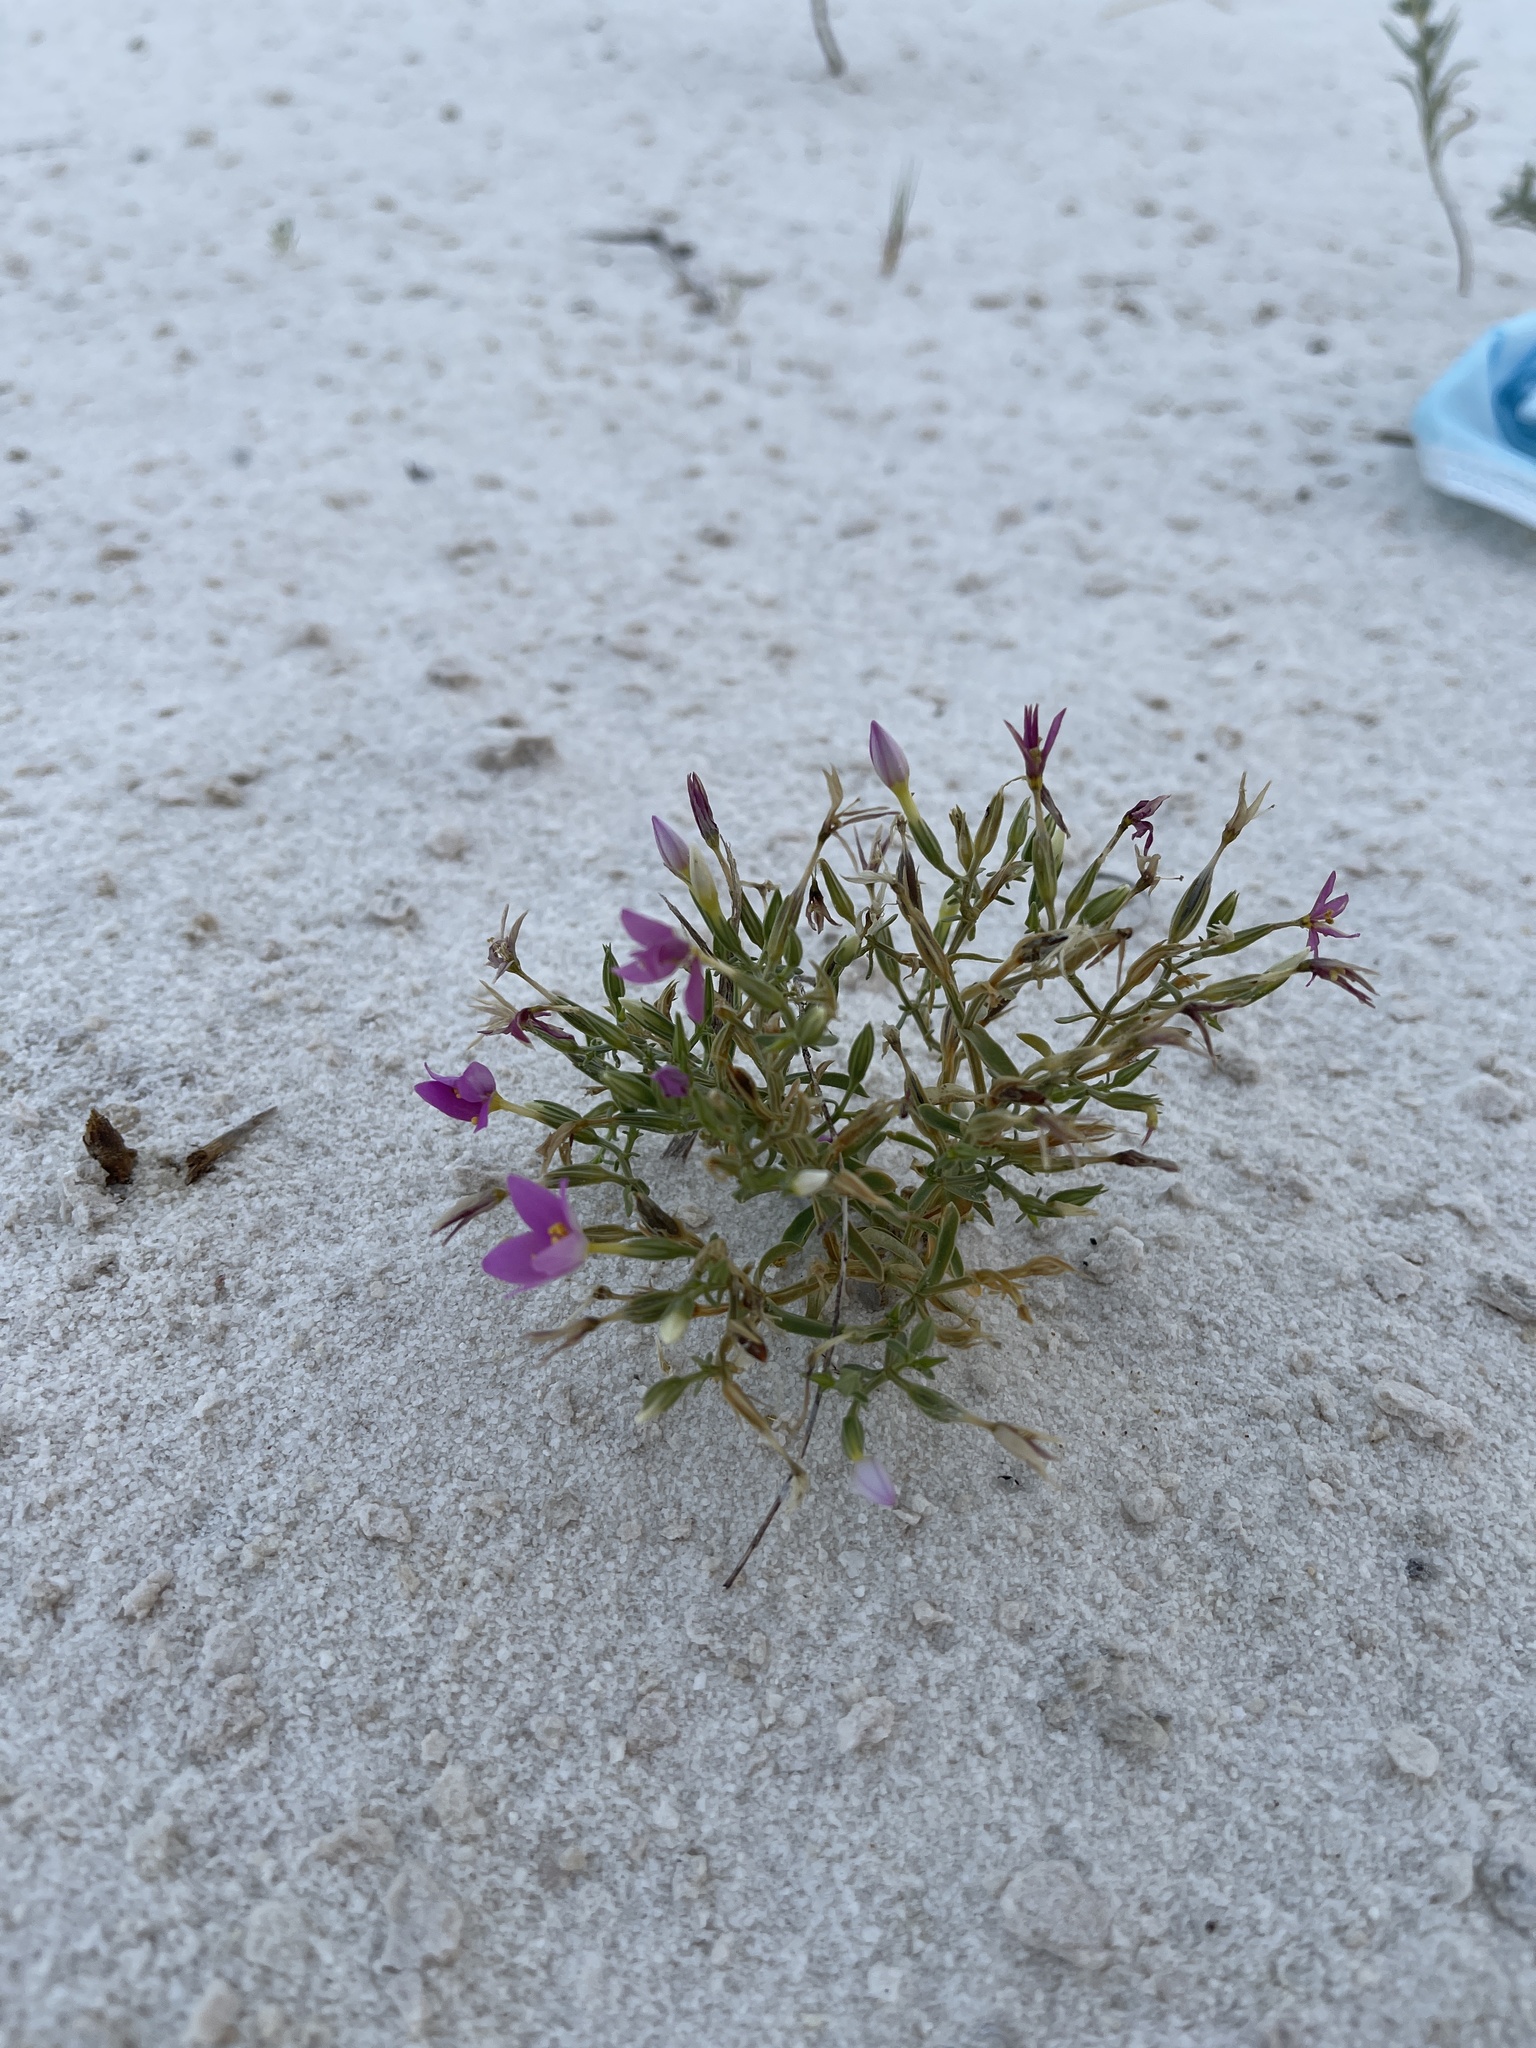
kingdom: Plantae
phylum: Tracheophyta
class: Magnoliopsida
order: Gentianales
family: Gentianaceae
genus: Zeltnera
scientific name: Zeltnera maryanniana
